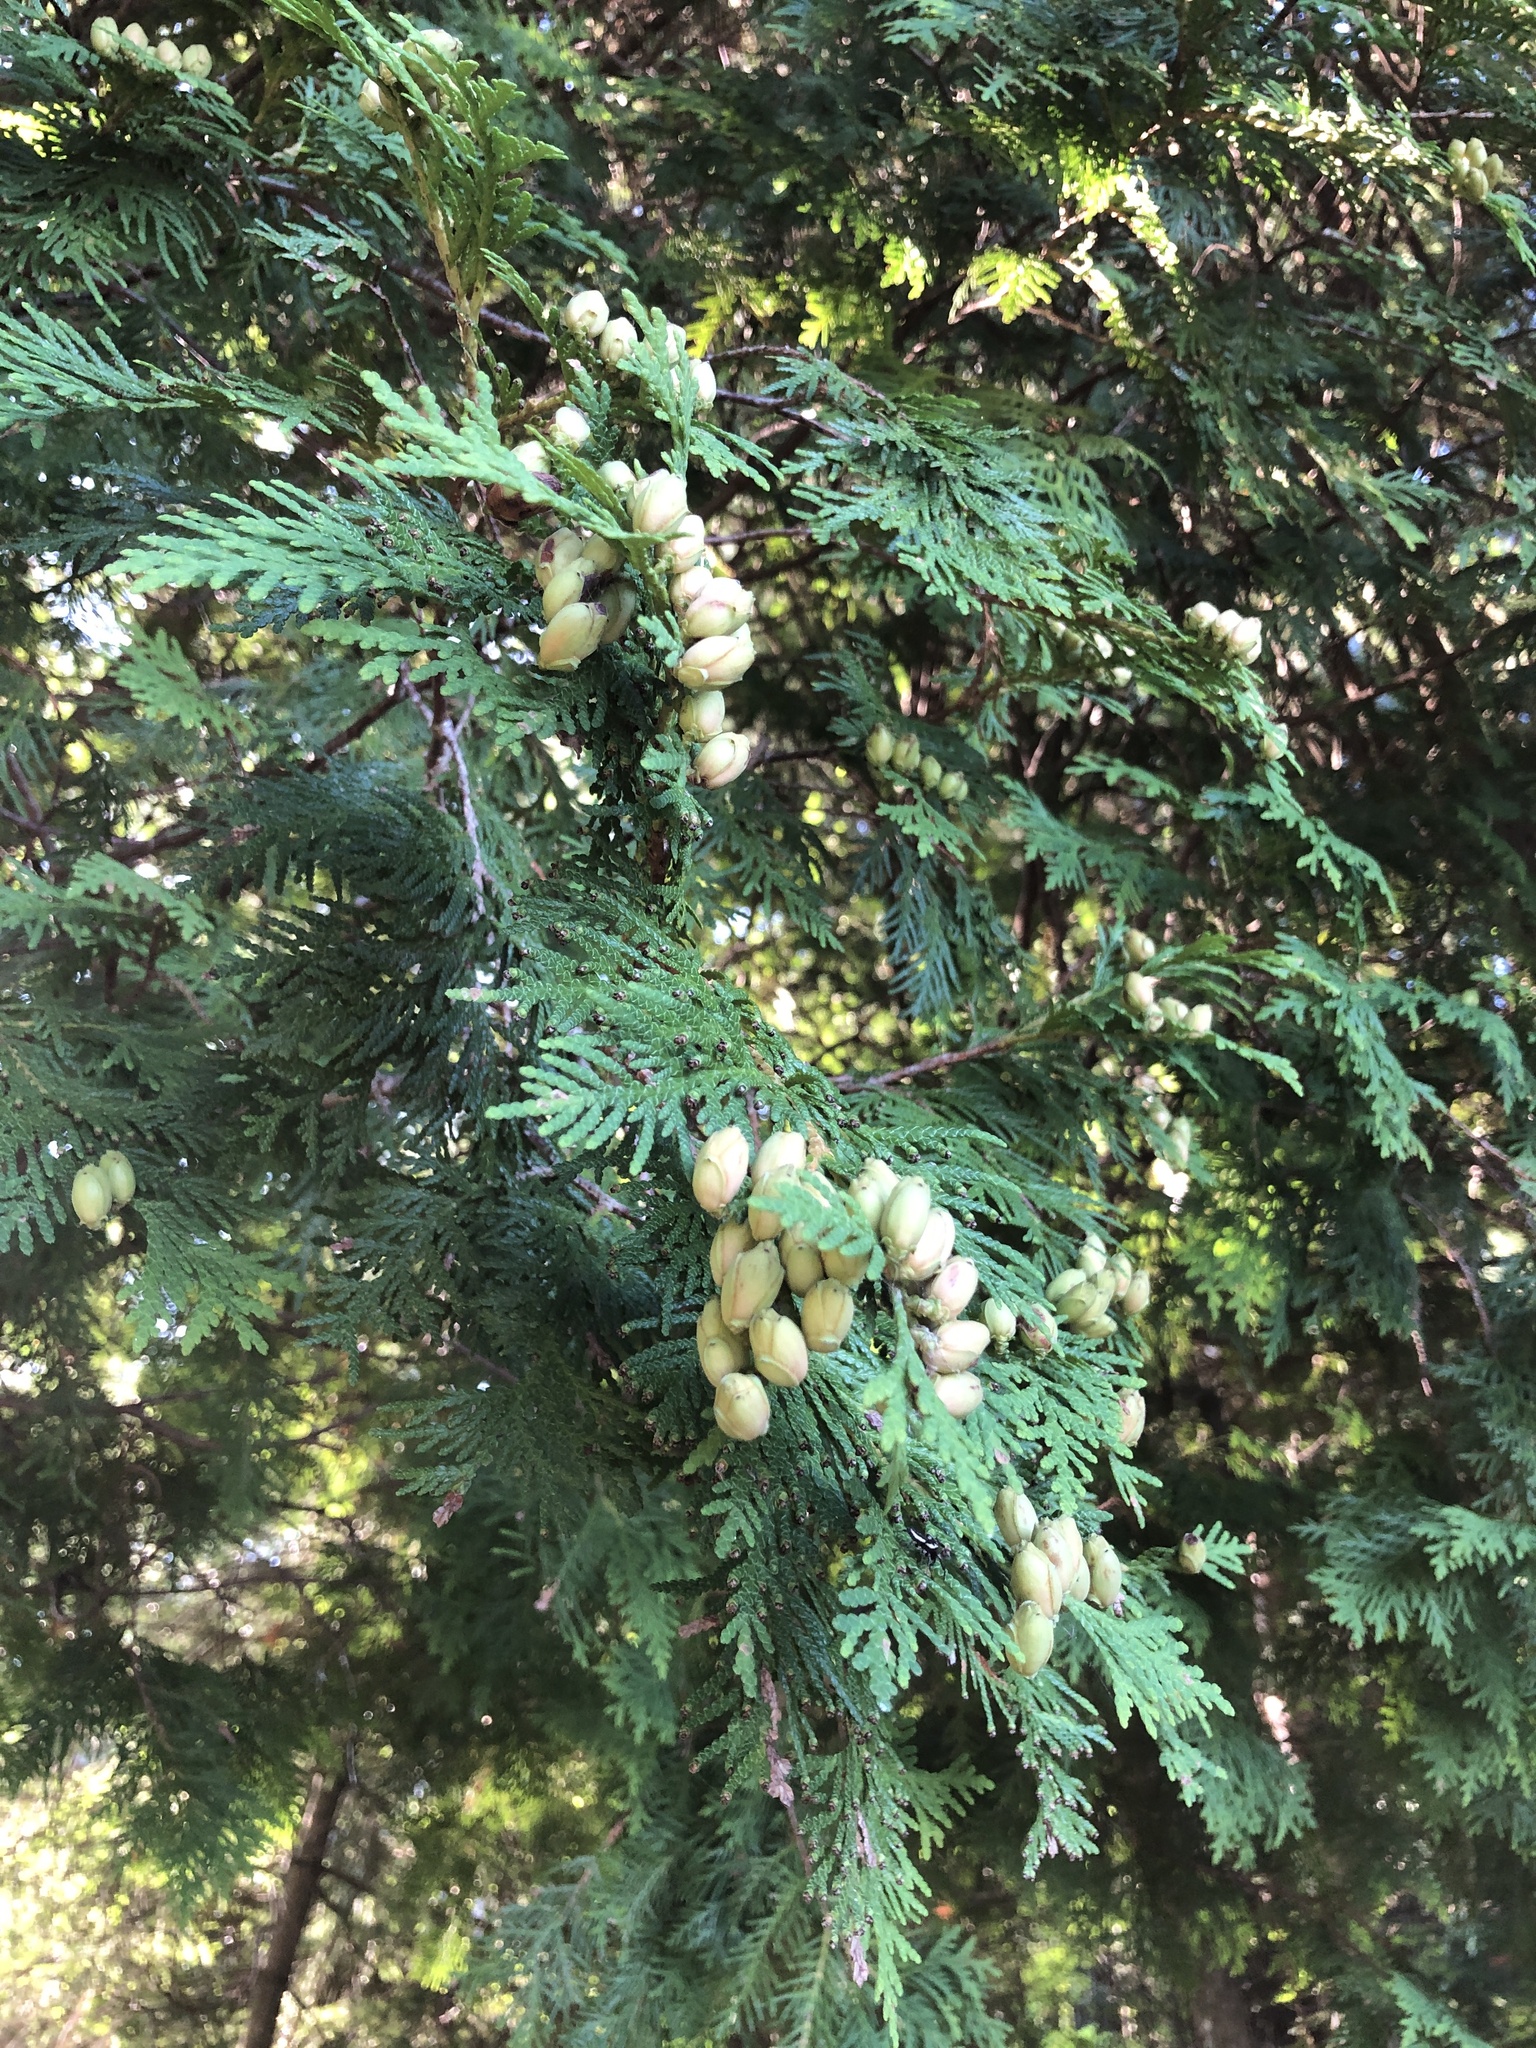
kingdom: Plantae
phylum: Tracheophyta
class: Pinopsida
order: Pinales
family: Cupressaceae
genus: Thuja
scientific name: Thuja occidentalis
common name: Northern white-cedar
